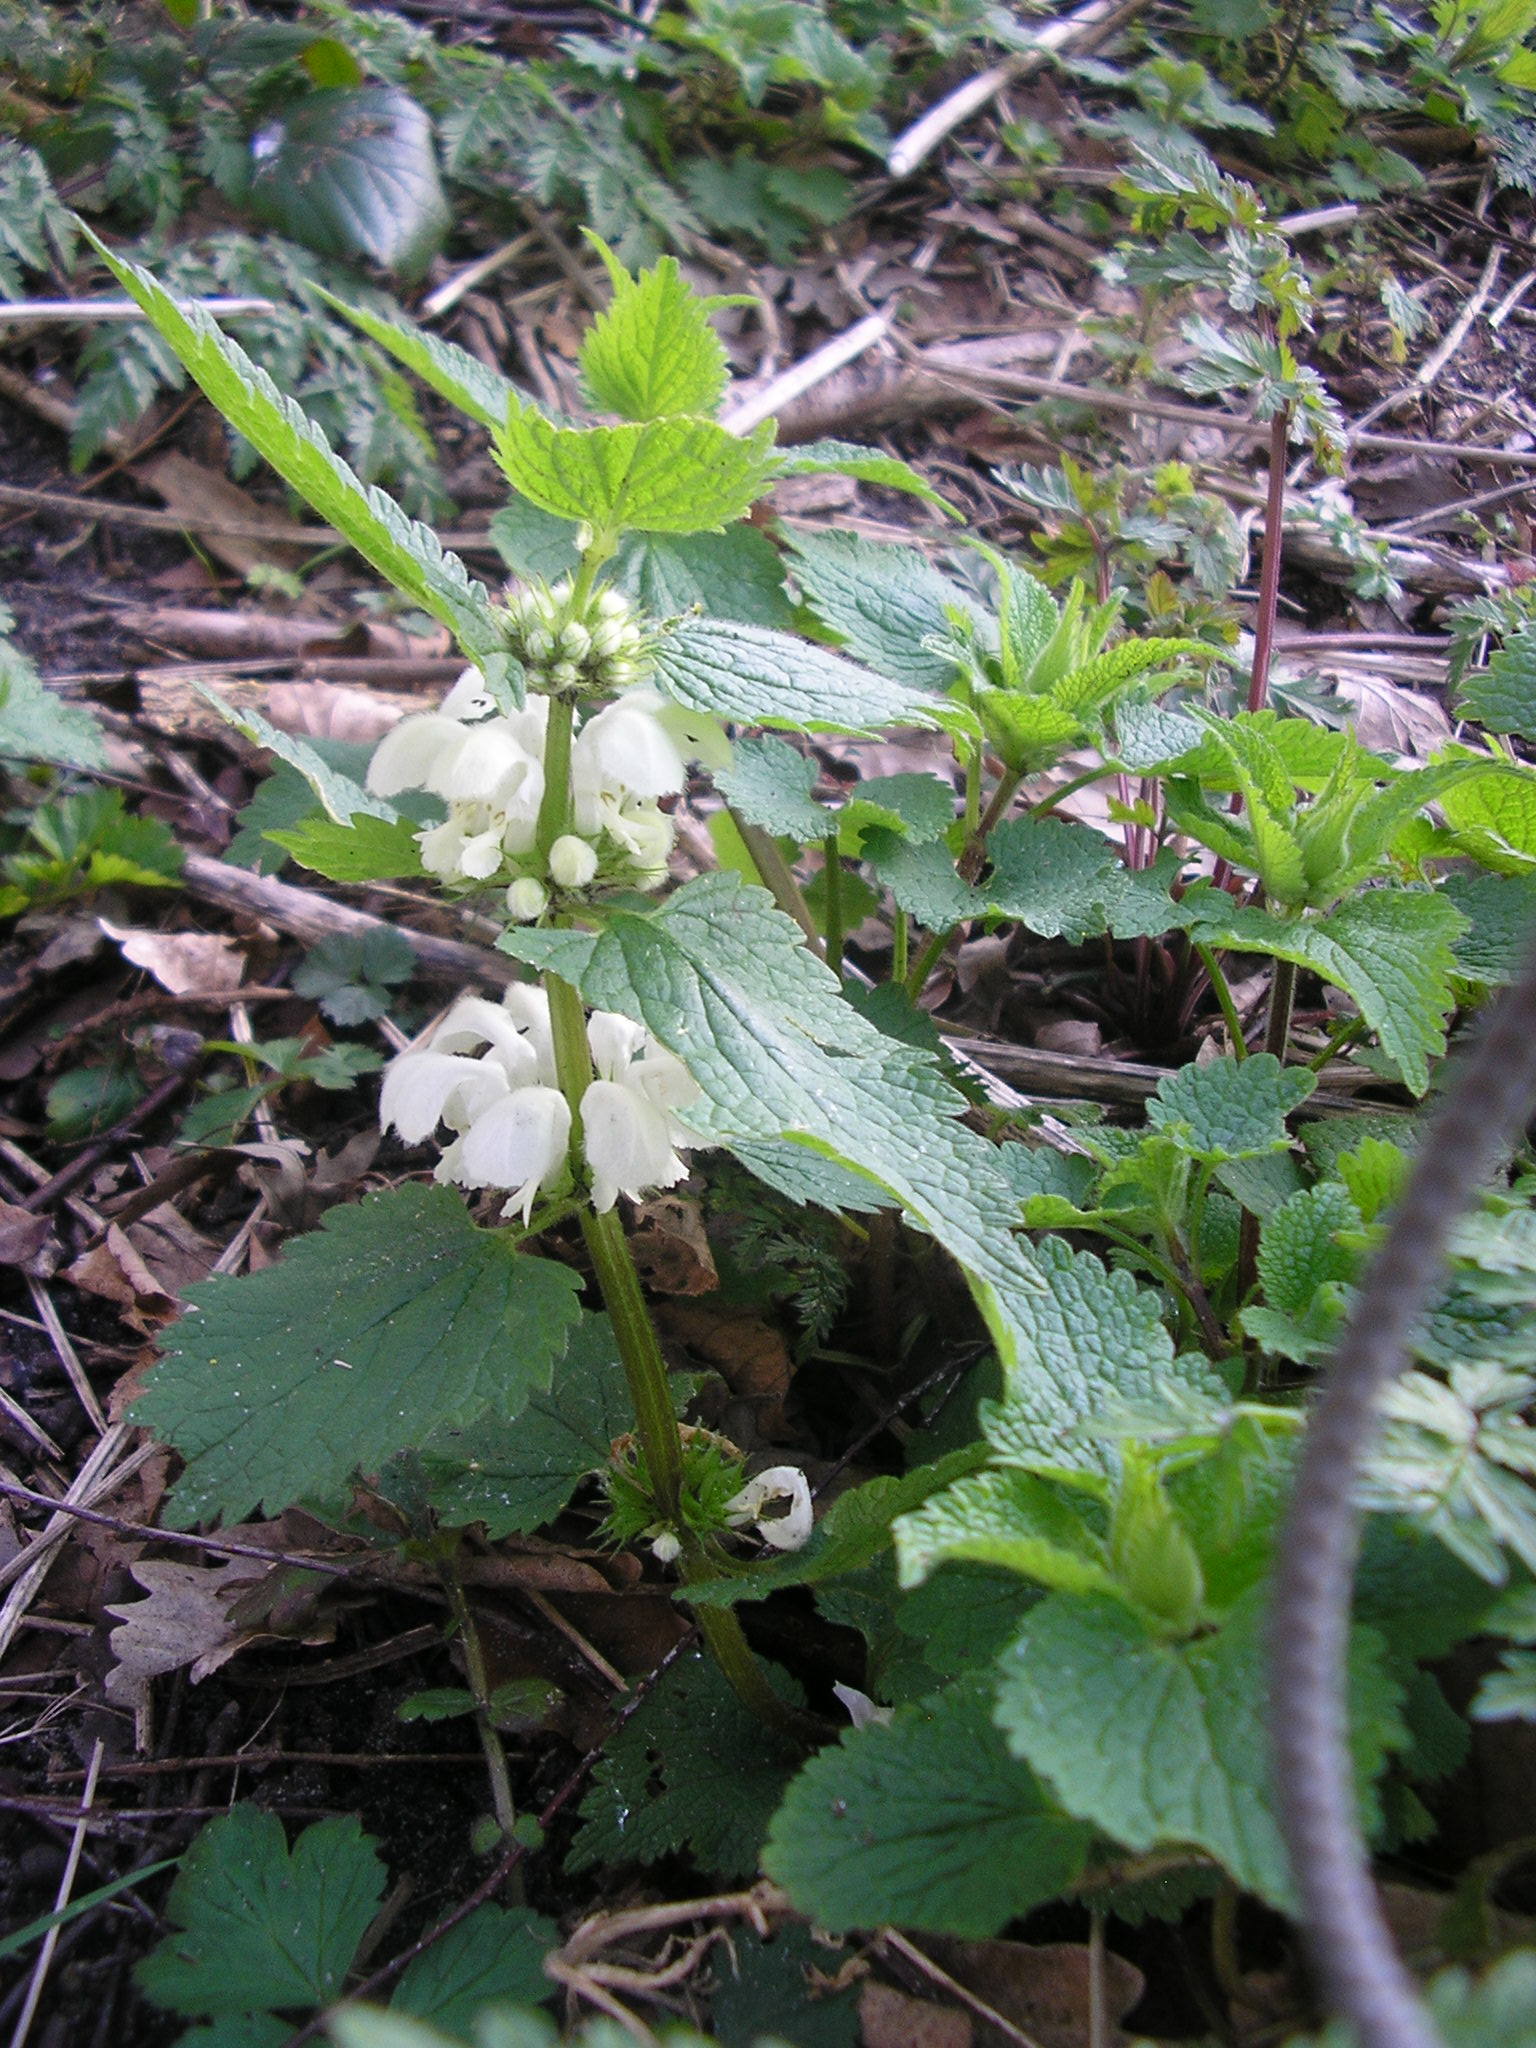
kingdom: Plantae
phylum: Tracheophyta
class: Magnoliopsida
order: Lamiales
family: Lamiaceae
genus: Lamium
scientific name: Lamium album
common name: White dead-nettle
